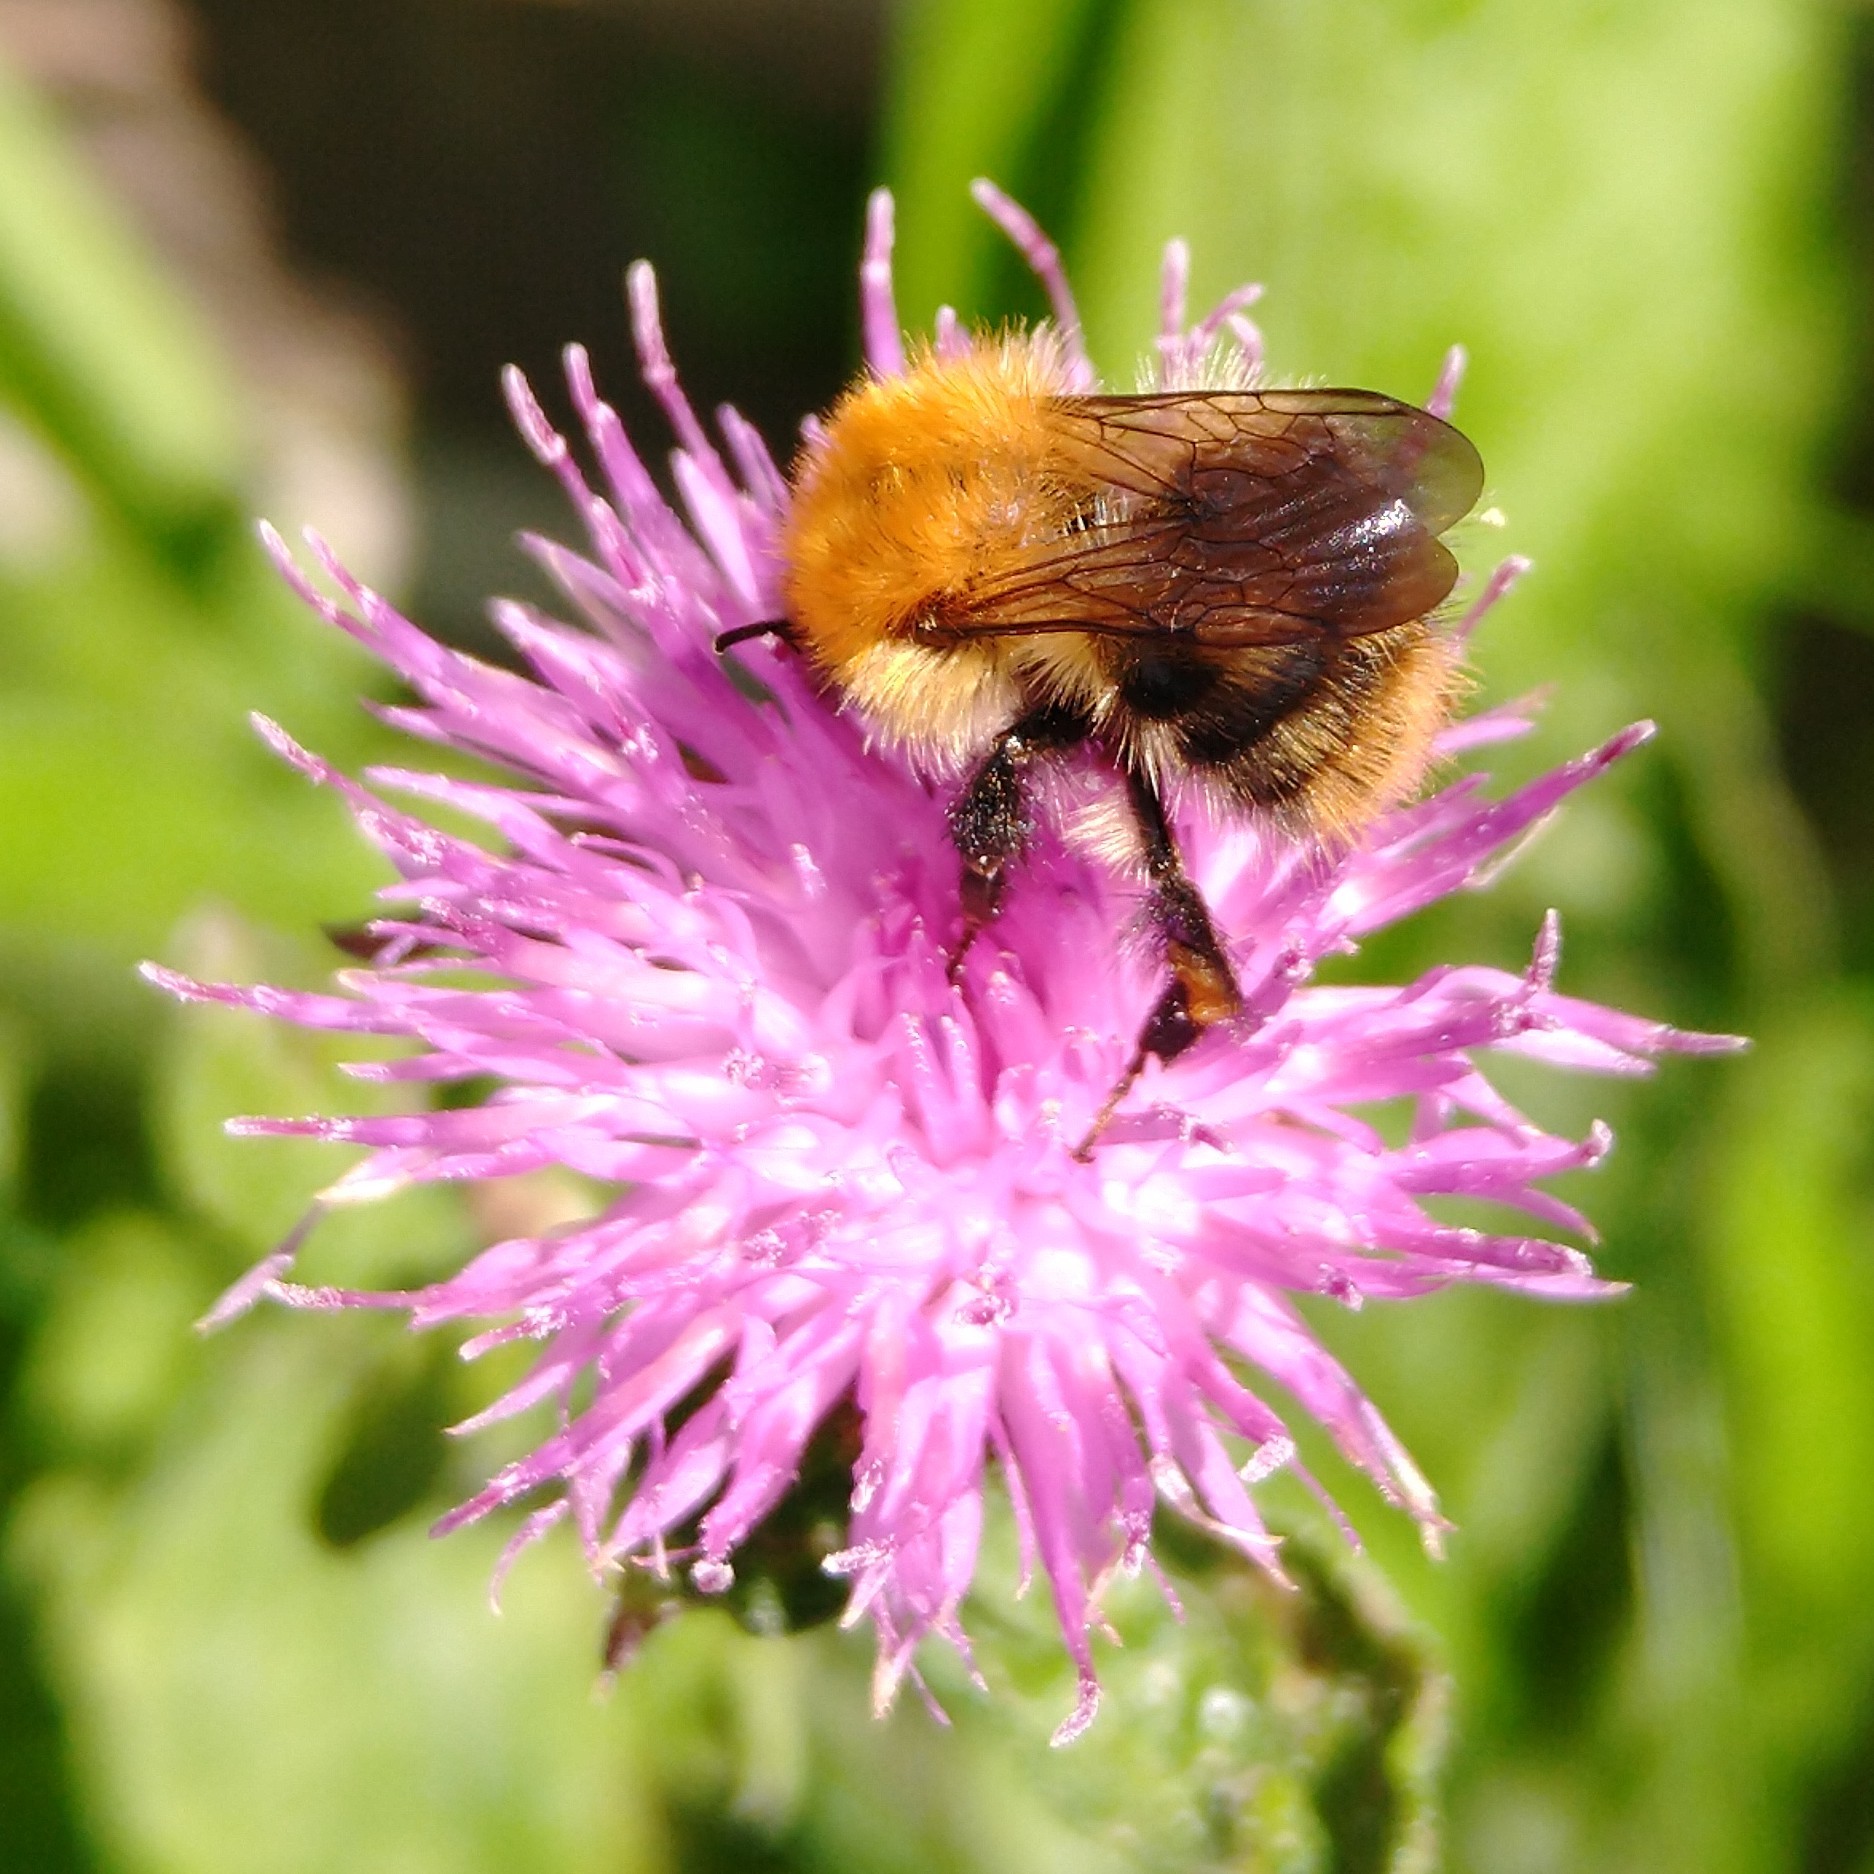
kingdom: Animalia
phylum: Arthropoda
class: Insecta
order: Hymenoptera
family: Apidae
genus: Bombus
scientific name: Bombus pascuorum
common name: Common carder bee
